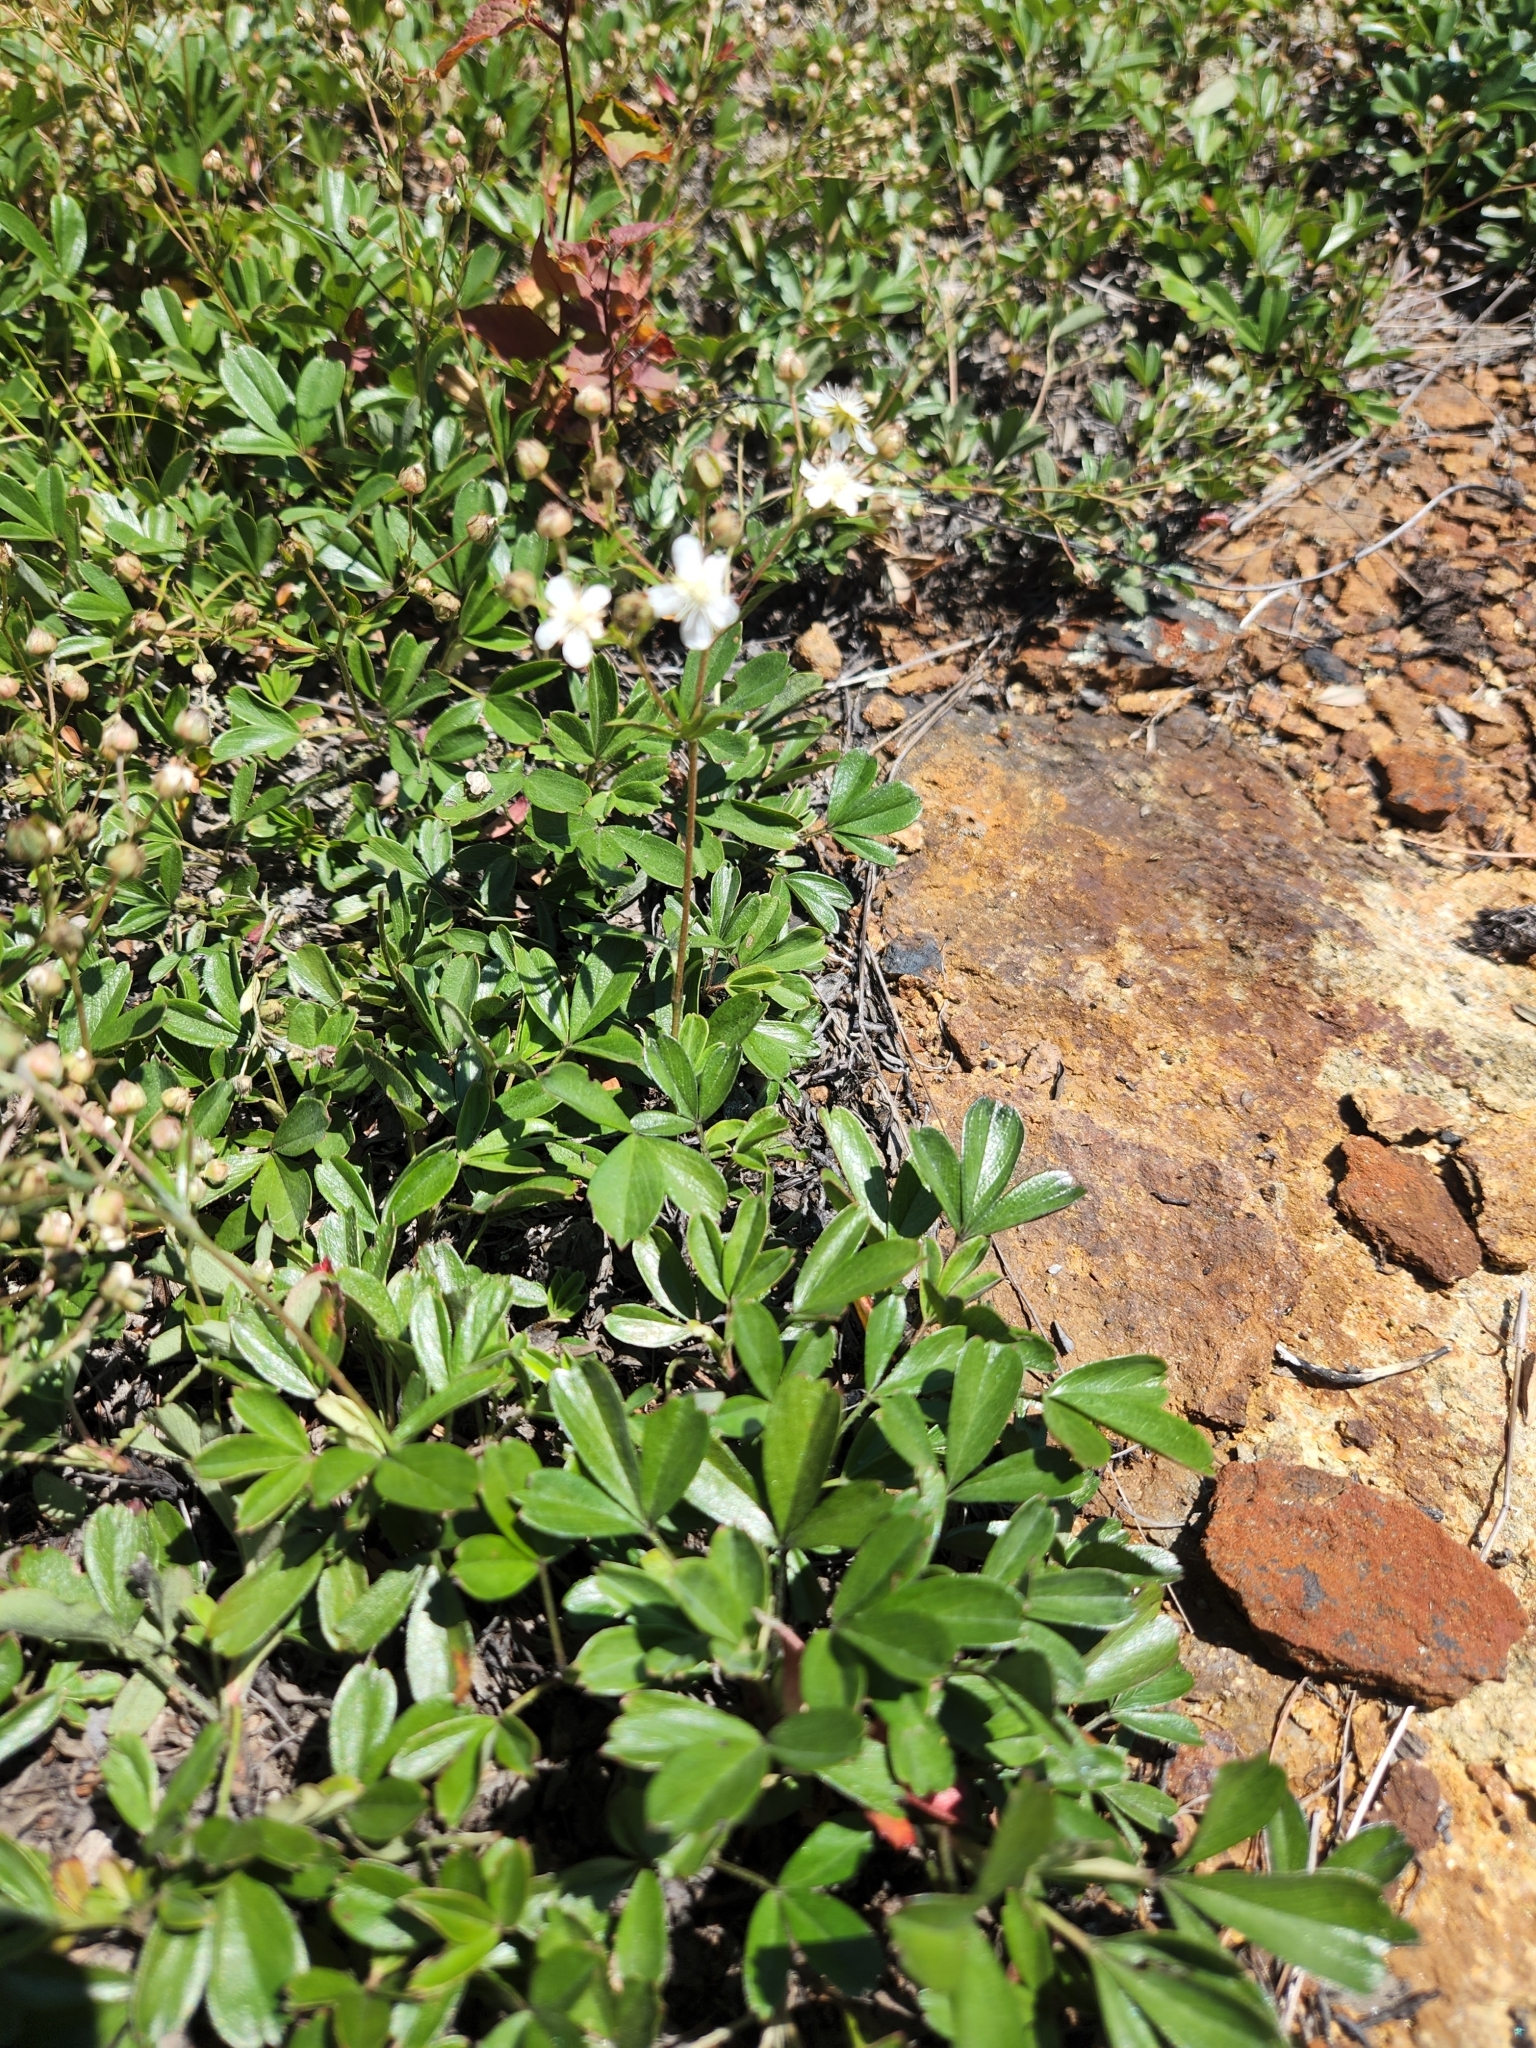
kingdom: Plantae
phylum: Tracheophyta
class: Magnoliopsida
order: Rosales
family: Rosaceae
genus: Sibbaldia
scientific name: Sibbaldia tridentata
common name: Three-toothed cinquefoil
